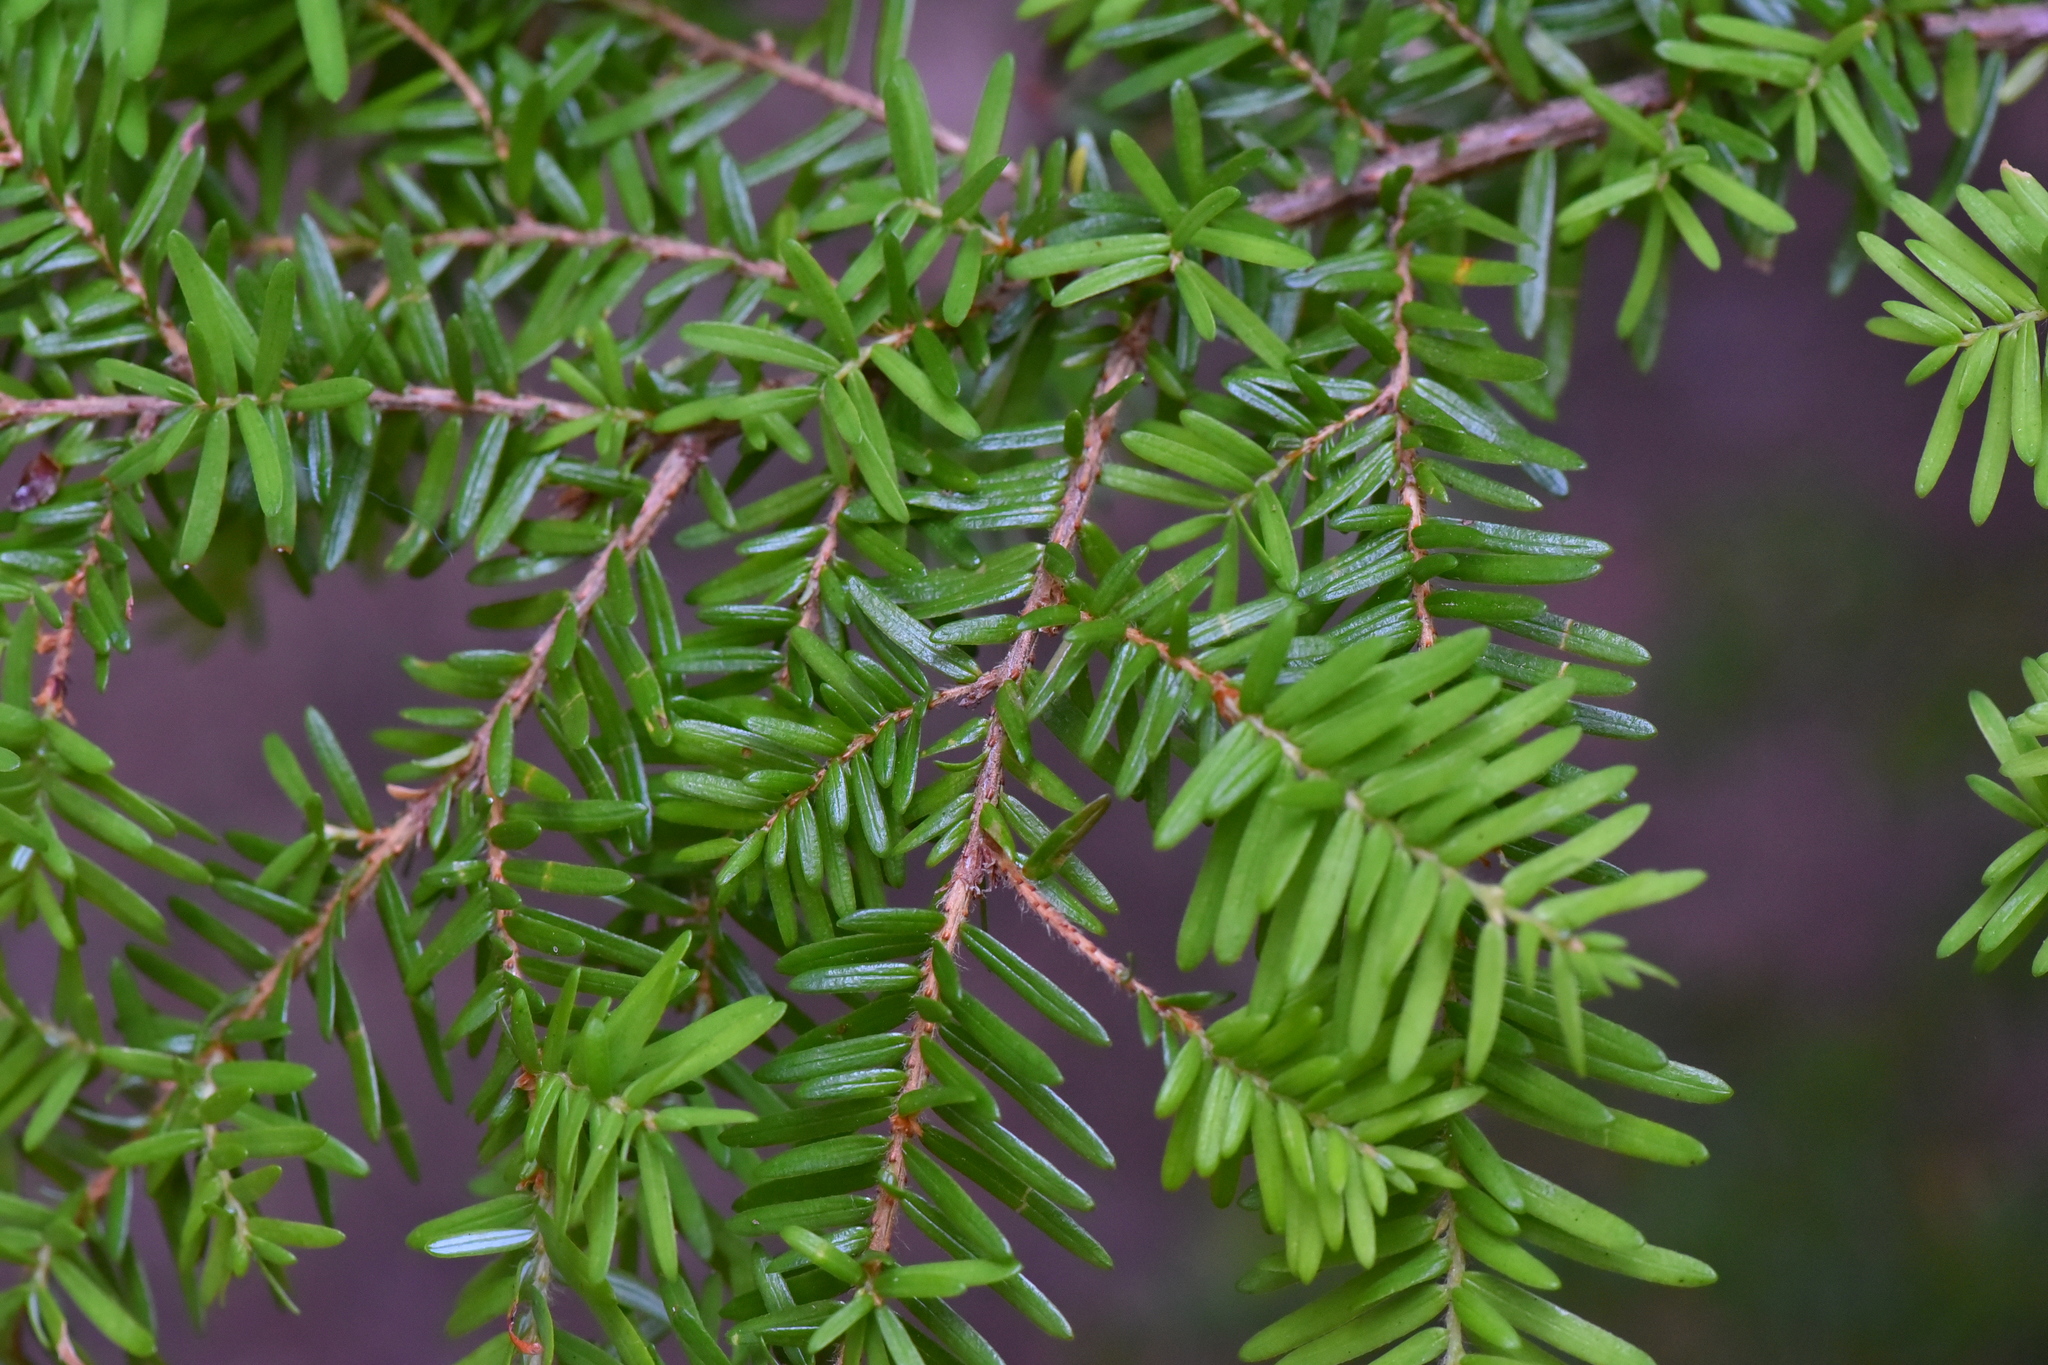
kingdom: Plantae
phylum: Tracheophyta
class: Pinopsida
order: Pinales
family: Pinaceae
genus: Tsuga
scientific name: Tsuga heterophylla
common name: Western hemlock
